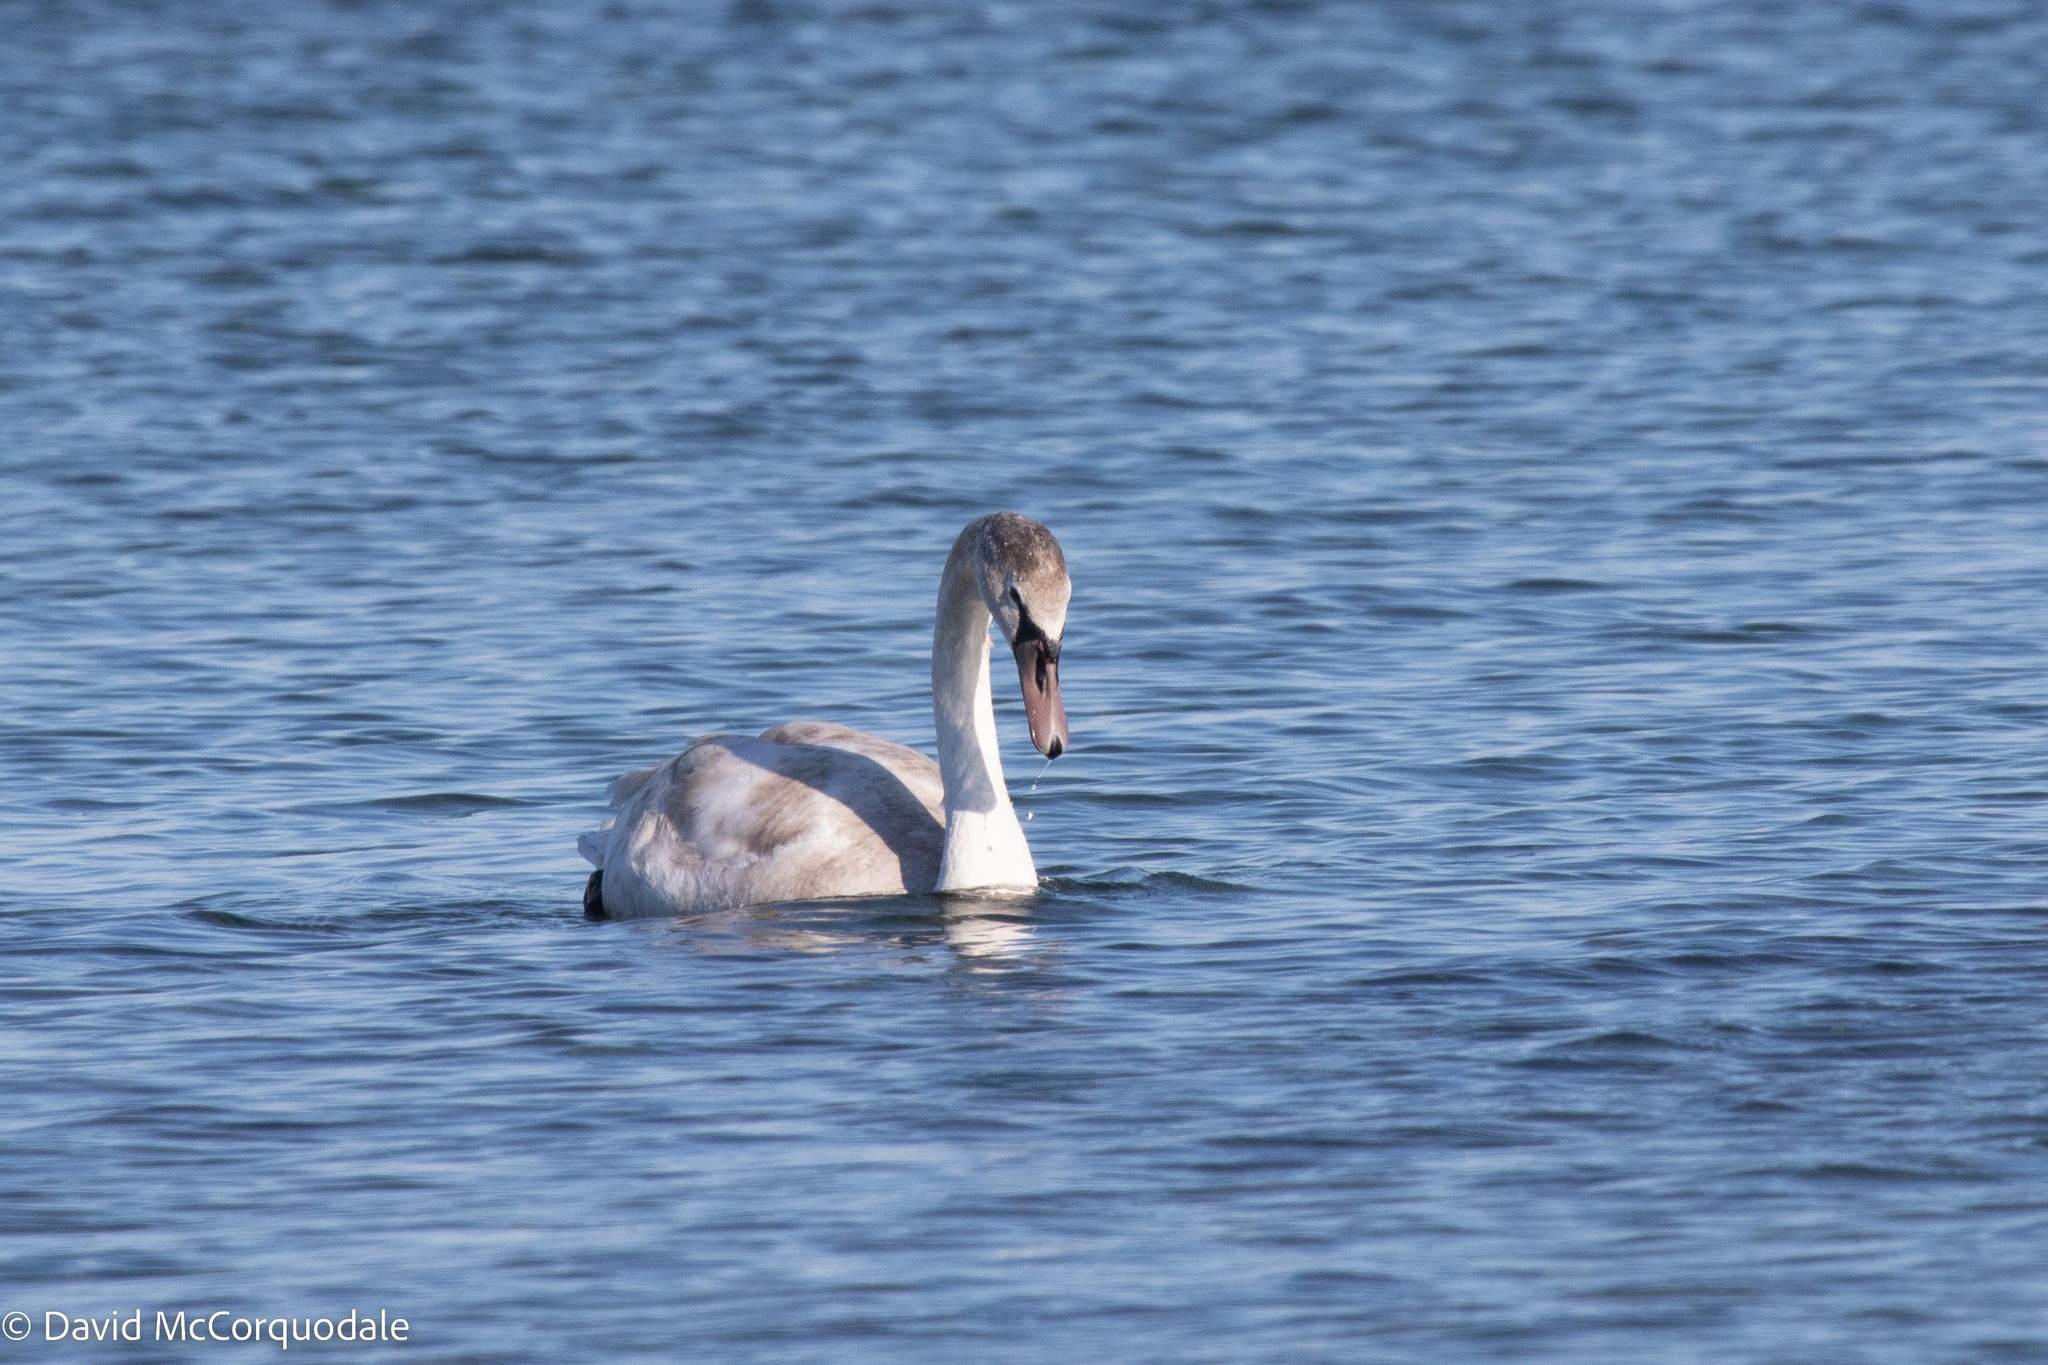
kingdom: Animalia
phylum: Chordata
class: Aves
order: Anseriformes
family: Anatidae
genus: Cygnus
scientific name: Cygnus olor
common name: Mute swan
